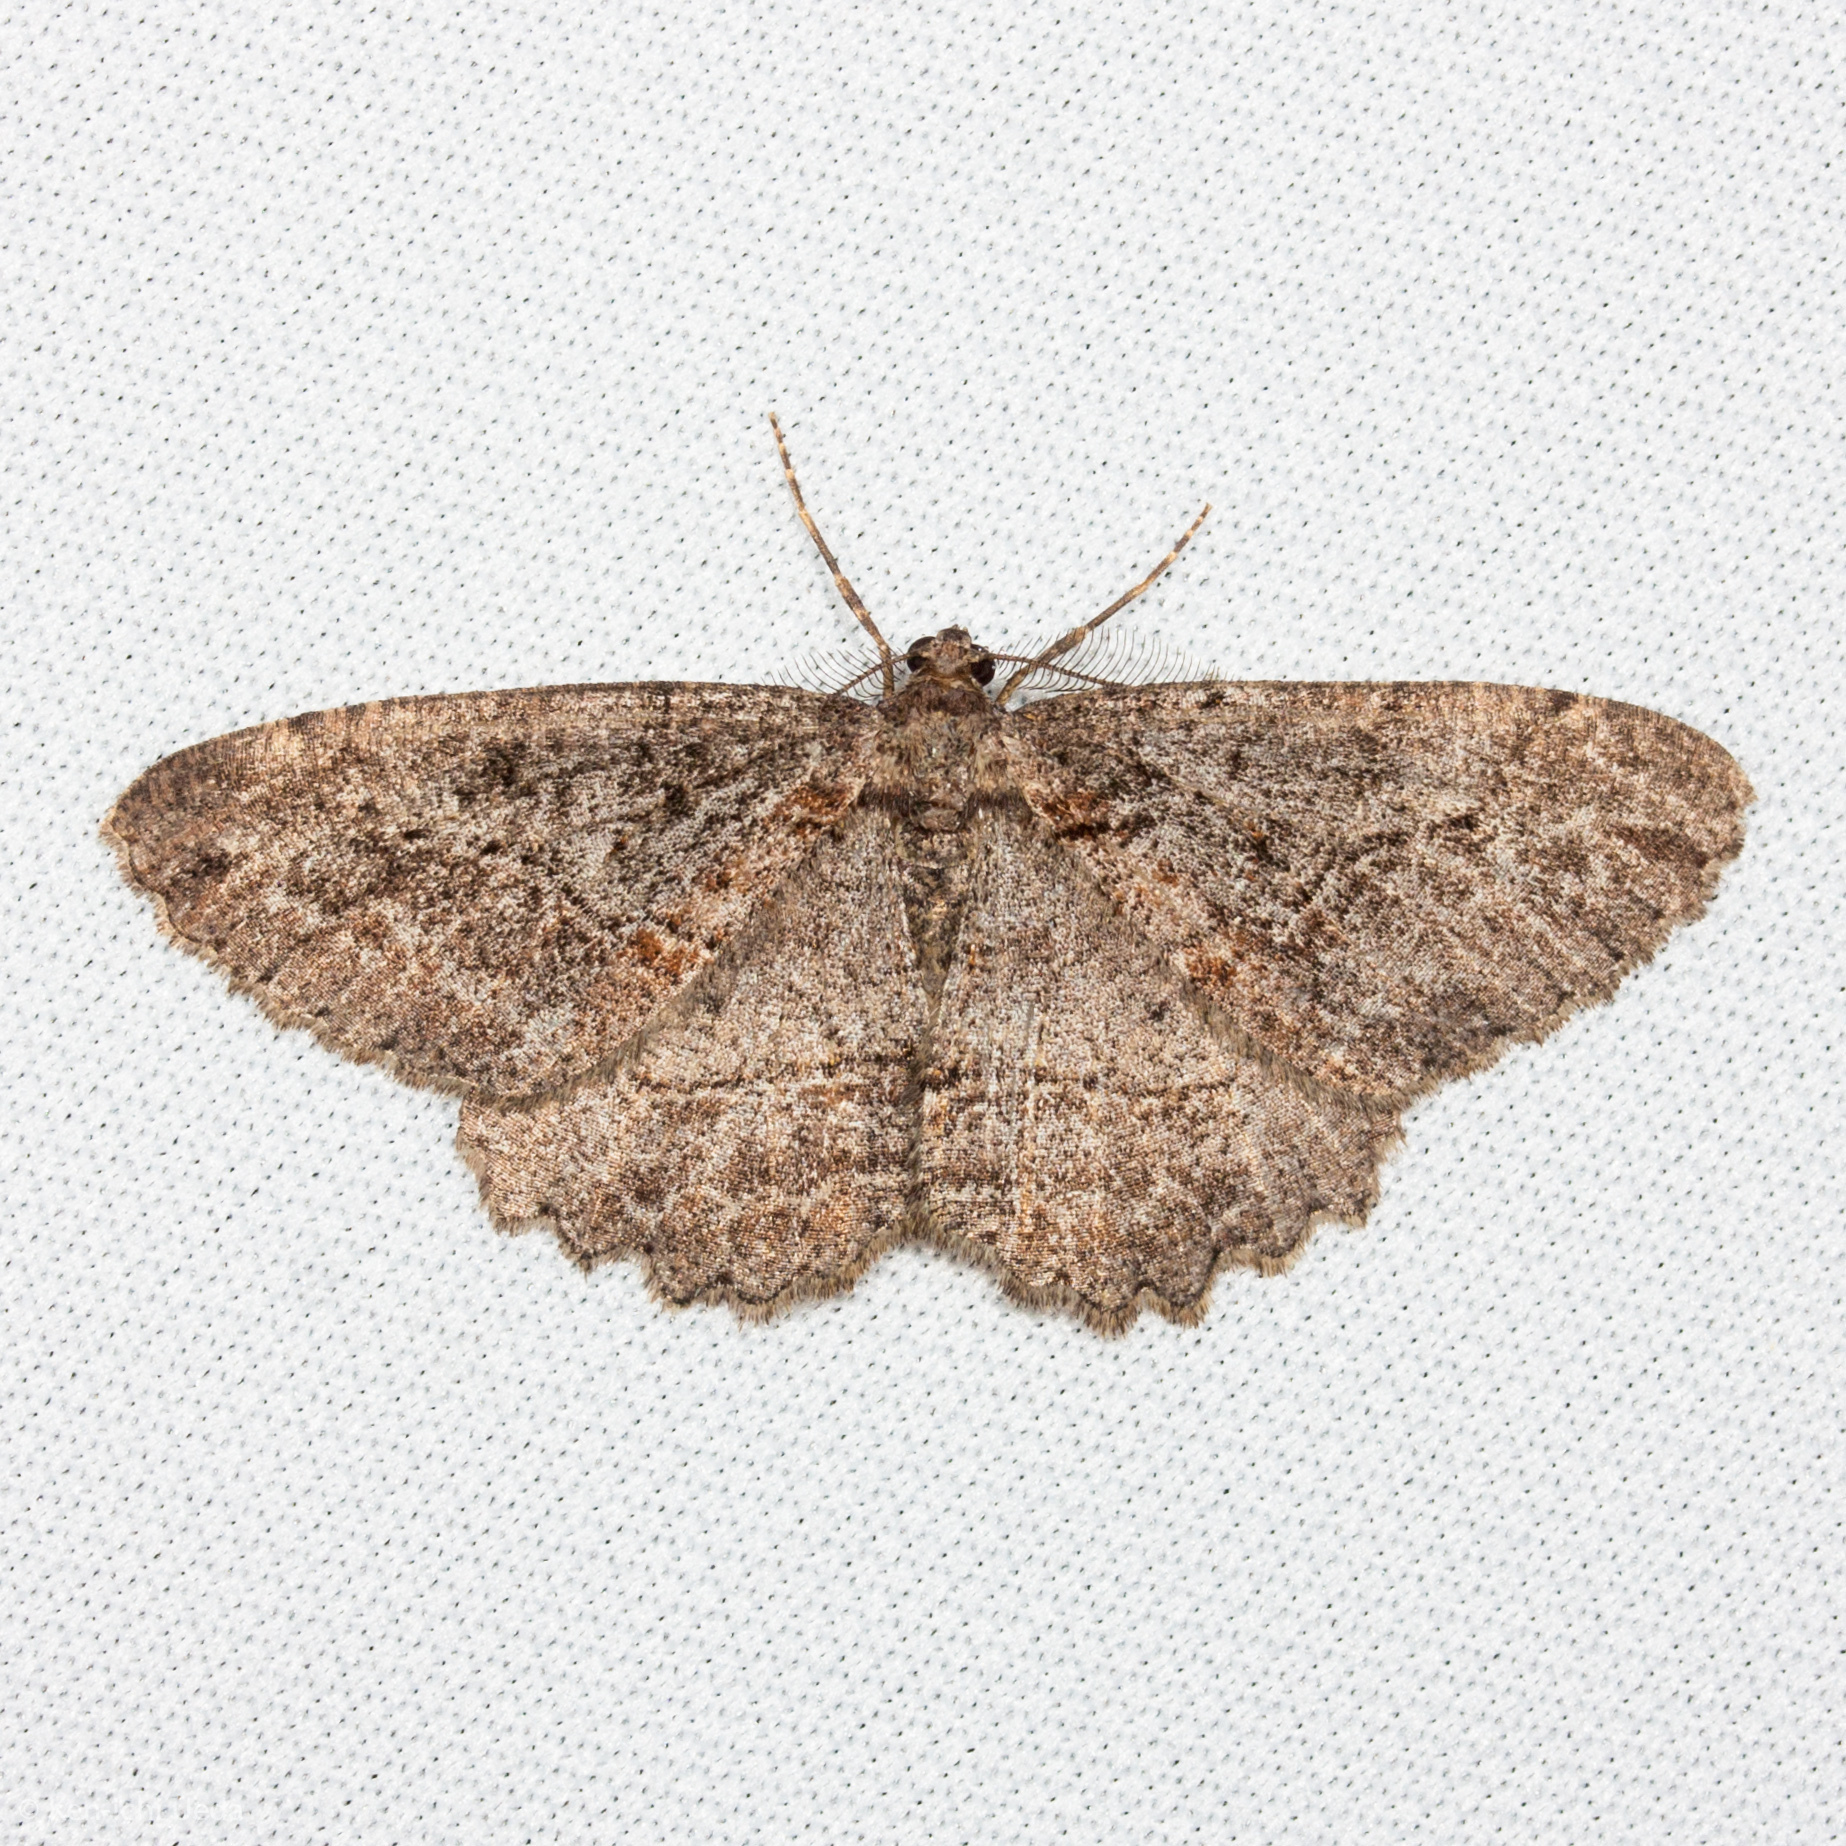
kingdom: Animalia
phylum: Arthropoda
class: Insecta
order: Lepidoptera
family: Geometridae
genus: Neoalcis
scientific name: Neoalcis californiaria
